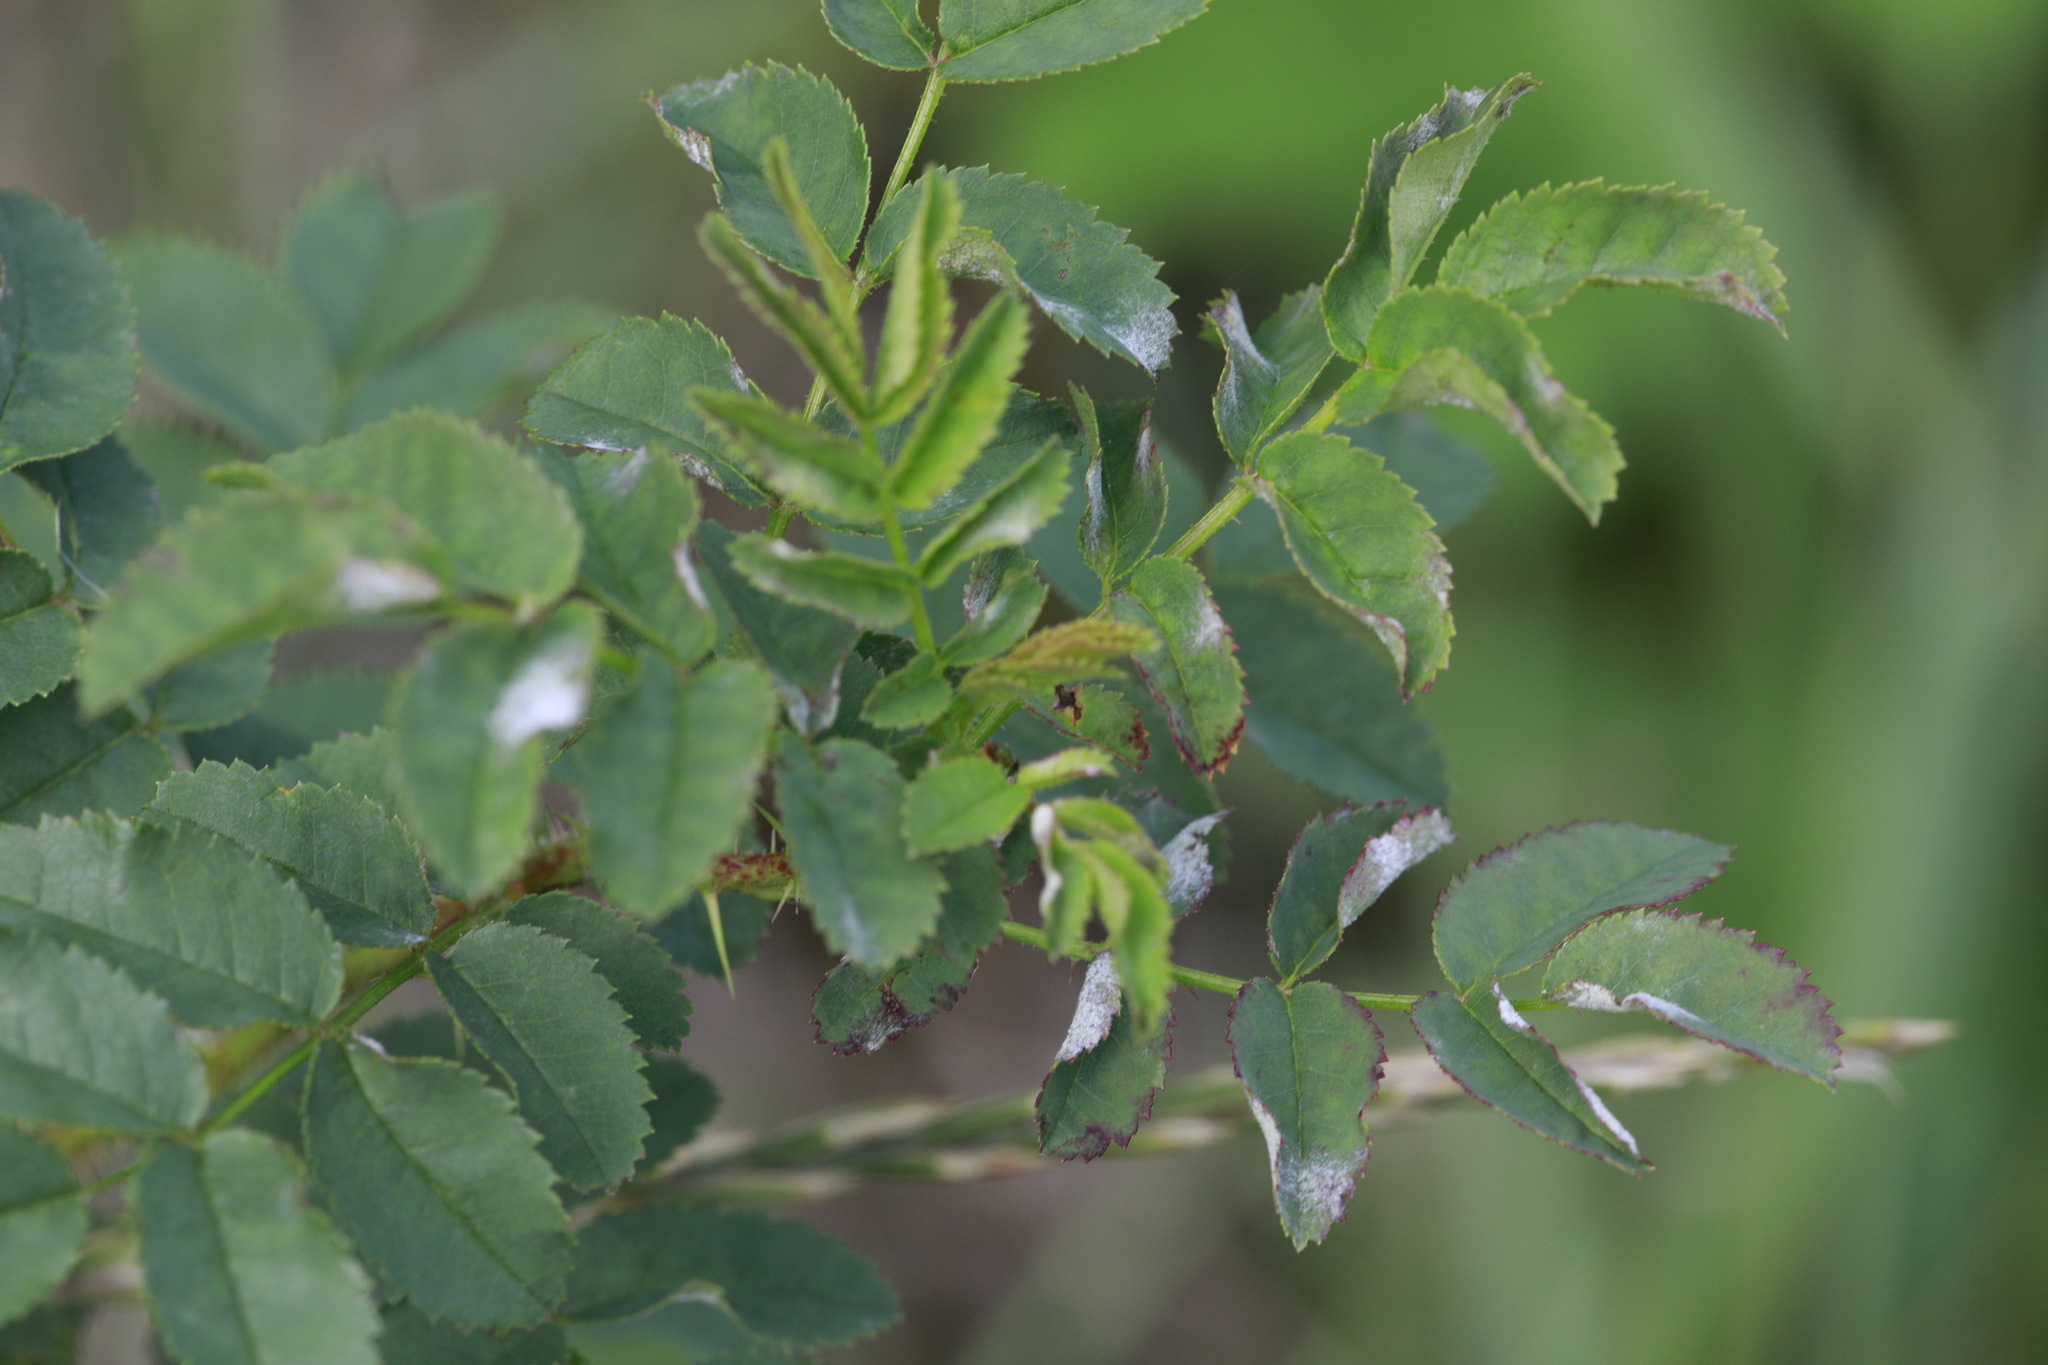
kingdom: Fungi
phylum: Ascomycota
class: Leotiomycetes
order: Helotiales
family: Erysiphaceae
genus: Podosphaera
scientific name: Podosphaera pannosa
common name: Rose mildew
